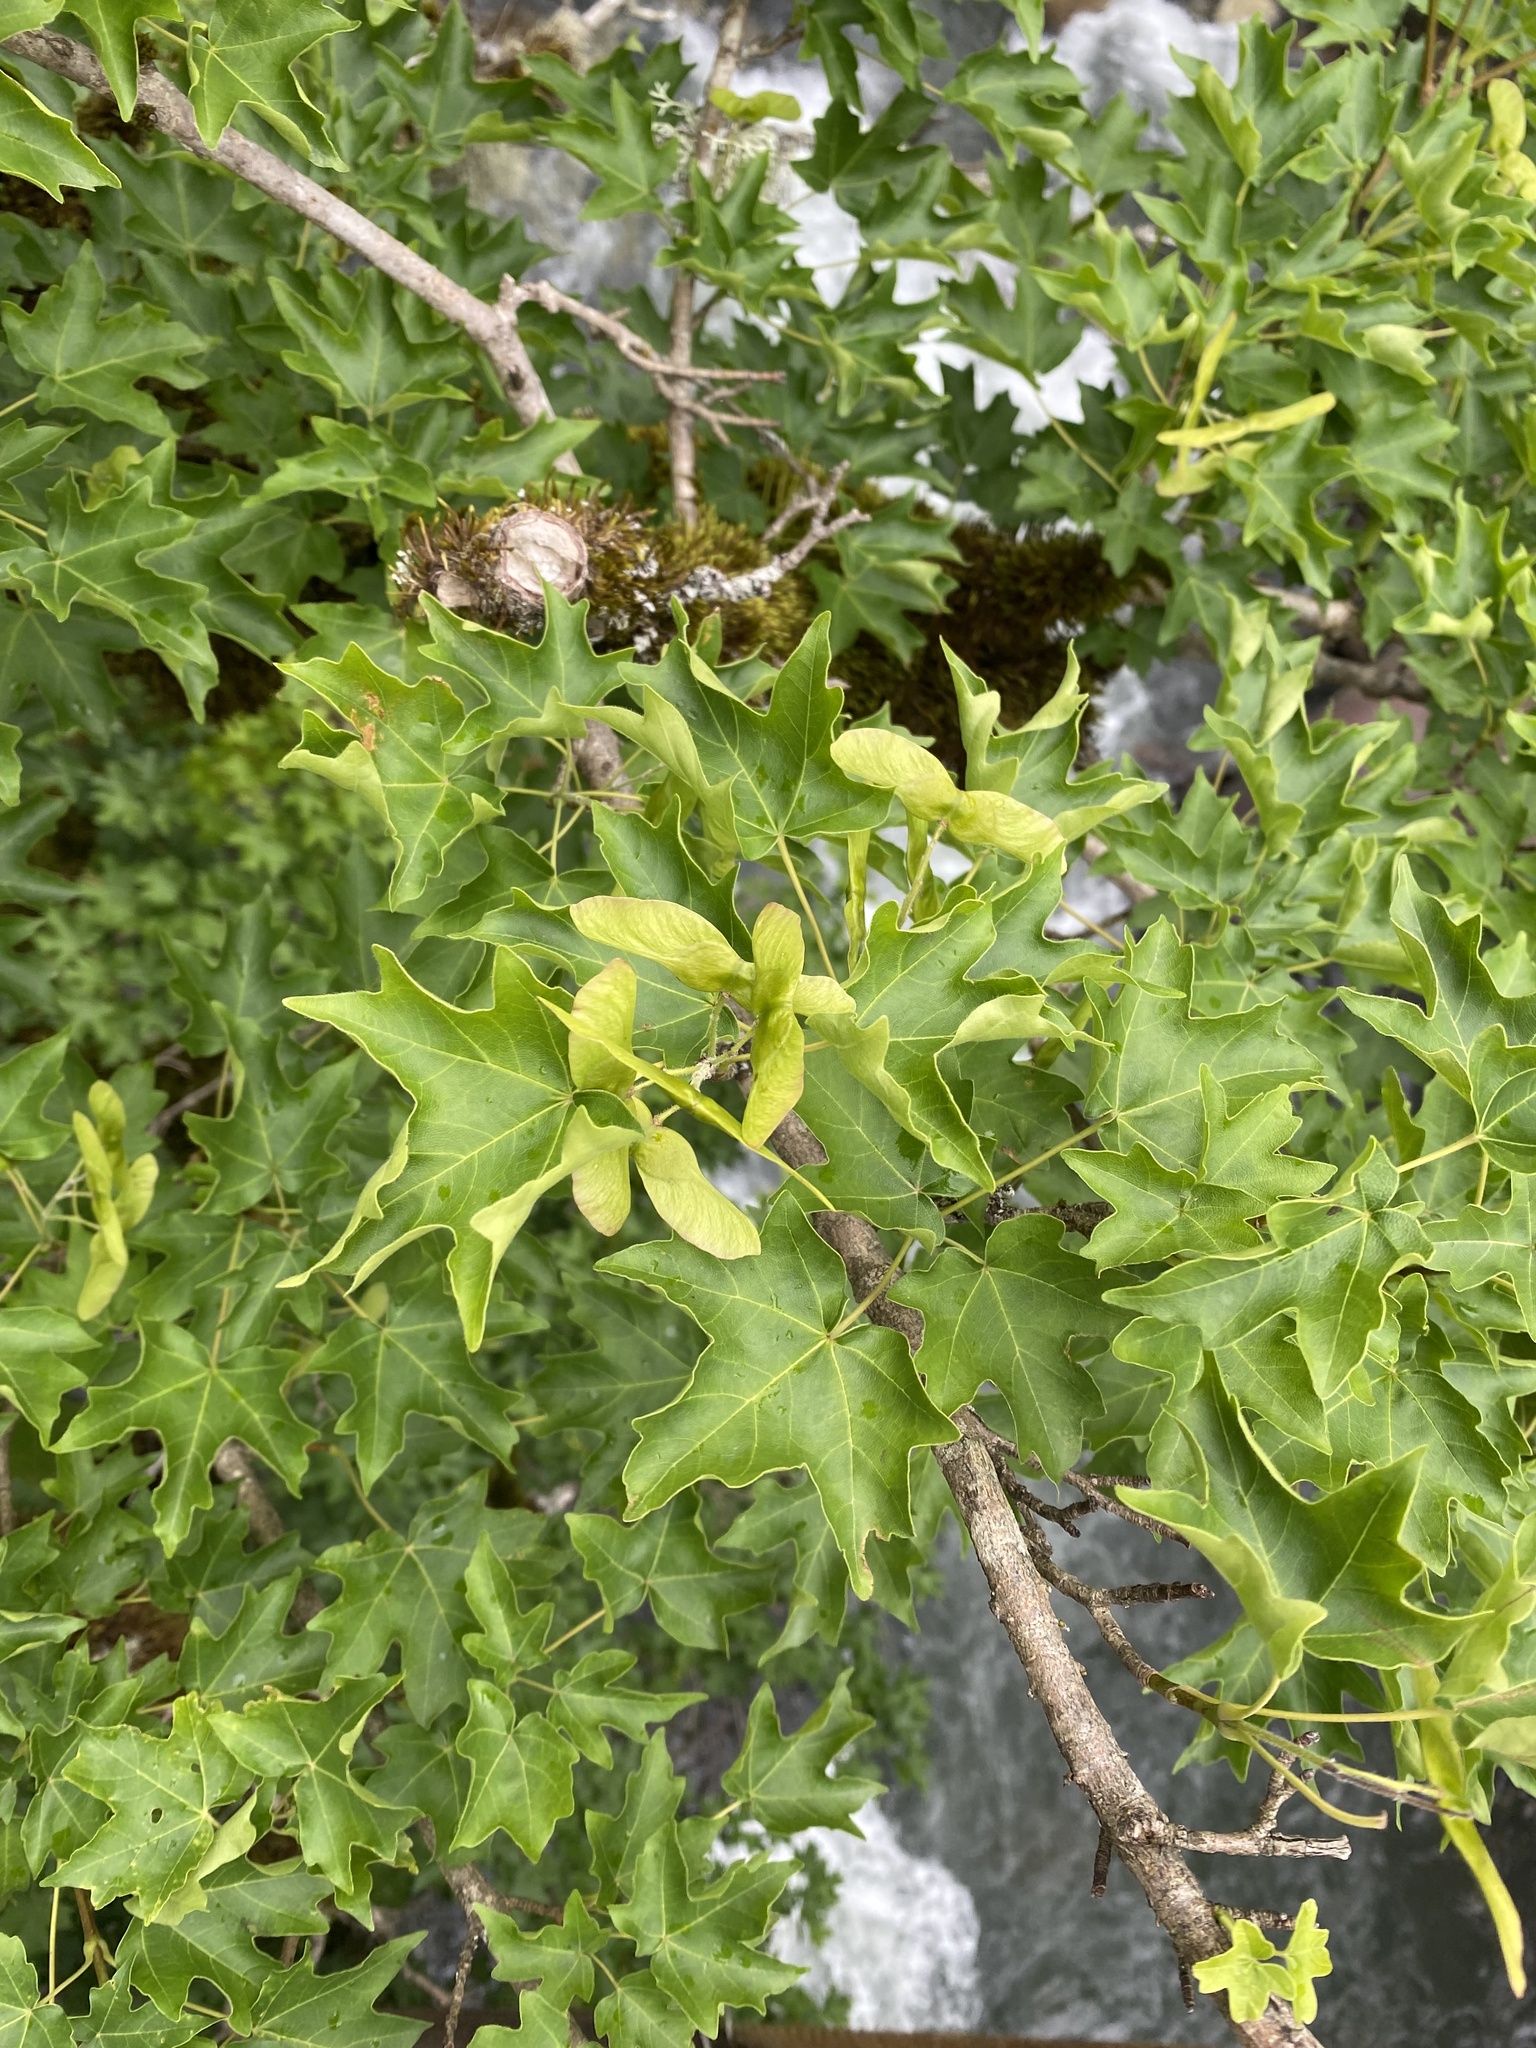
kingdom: Plantae
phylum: Tracheophyta
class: Magnoliopsida
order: Sapindales
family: Sapindaceae
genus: Acer
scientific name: Acer campestre
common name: Field maple
